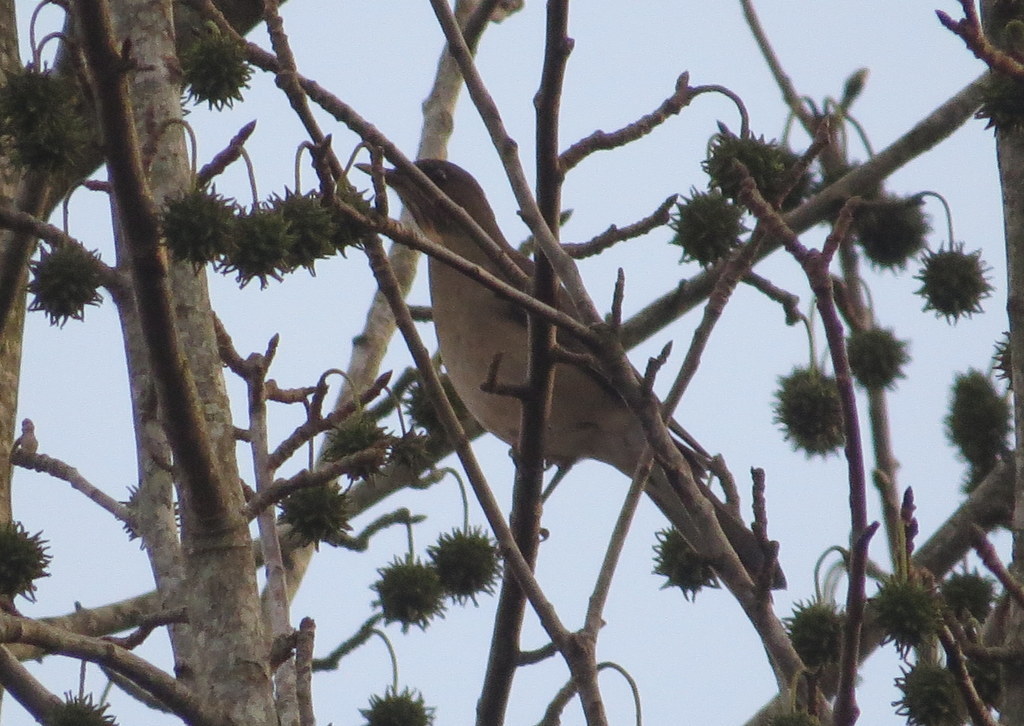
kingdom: Animalia
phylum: Chordata
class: Aves
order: Passeriformes
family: Turdidae
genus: Turdus
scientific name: Turdus amaurochalinus
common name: Creamy-bellied thrush
